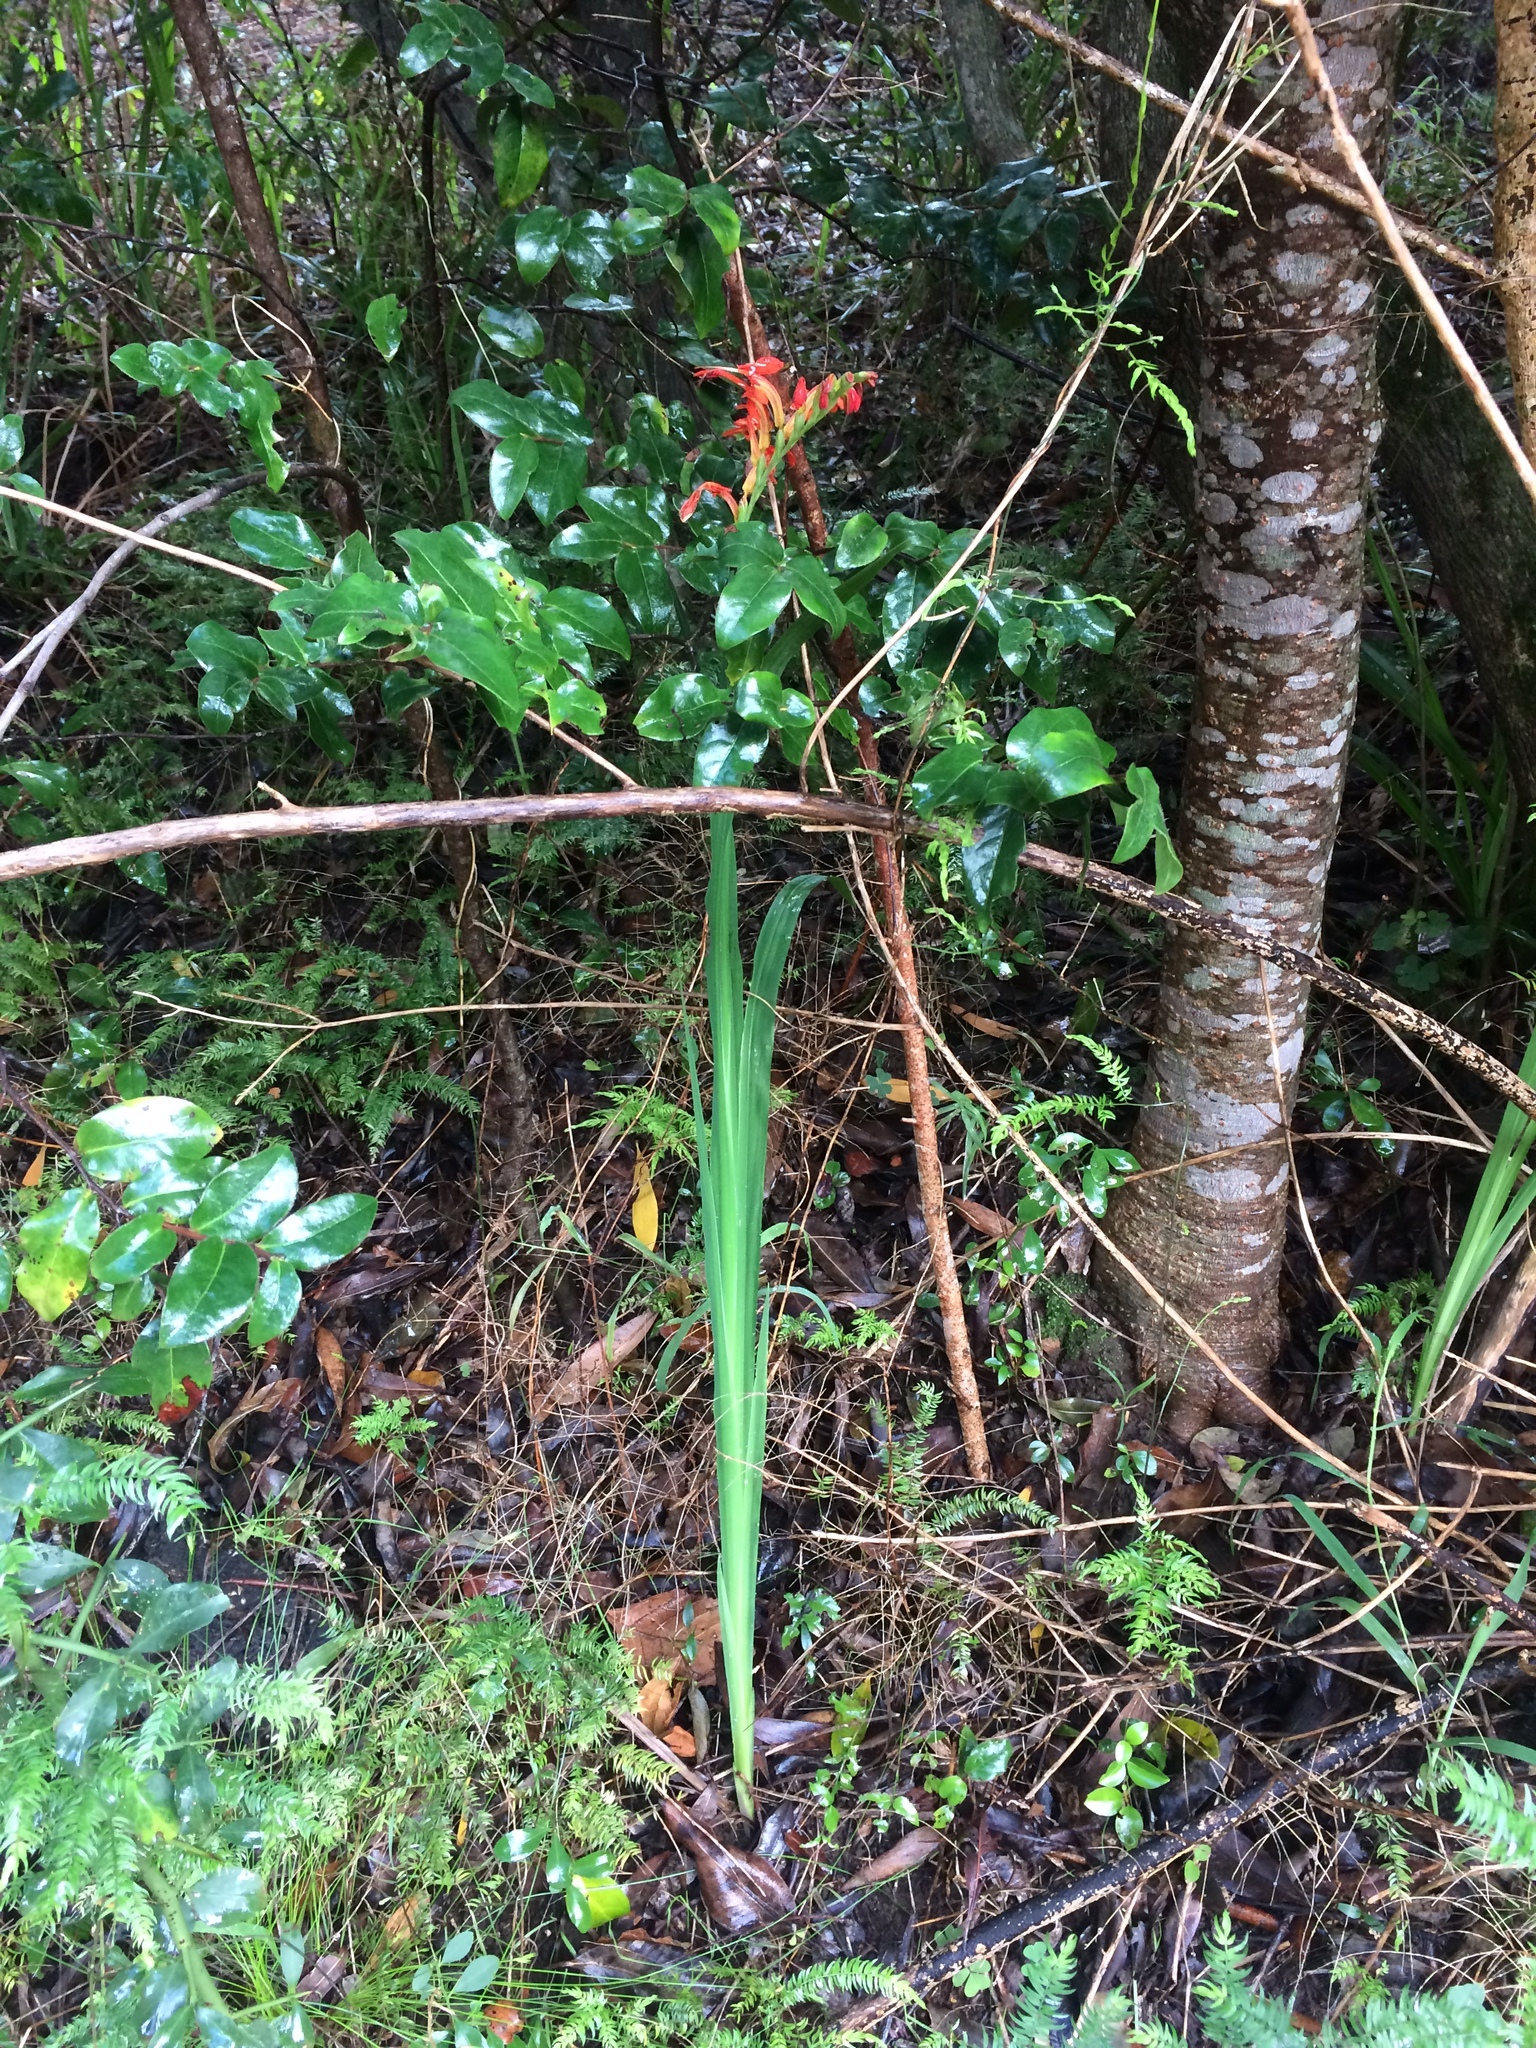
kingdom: Plantae
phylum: Tracheophyta
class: Liliopsida
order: Asparagales
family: Iridaceae
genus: Chasmanthe
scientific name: Chasmanthe aethiopica
